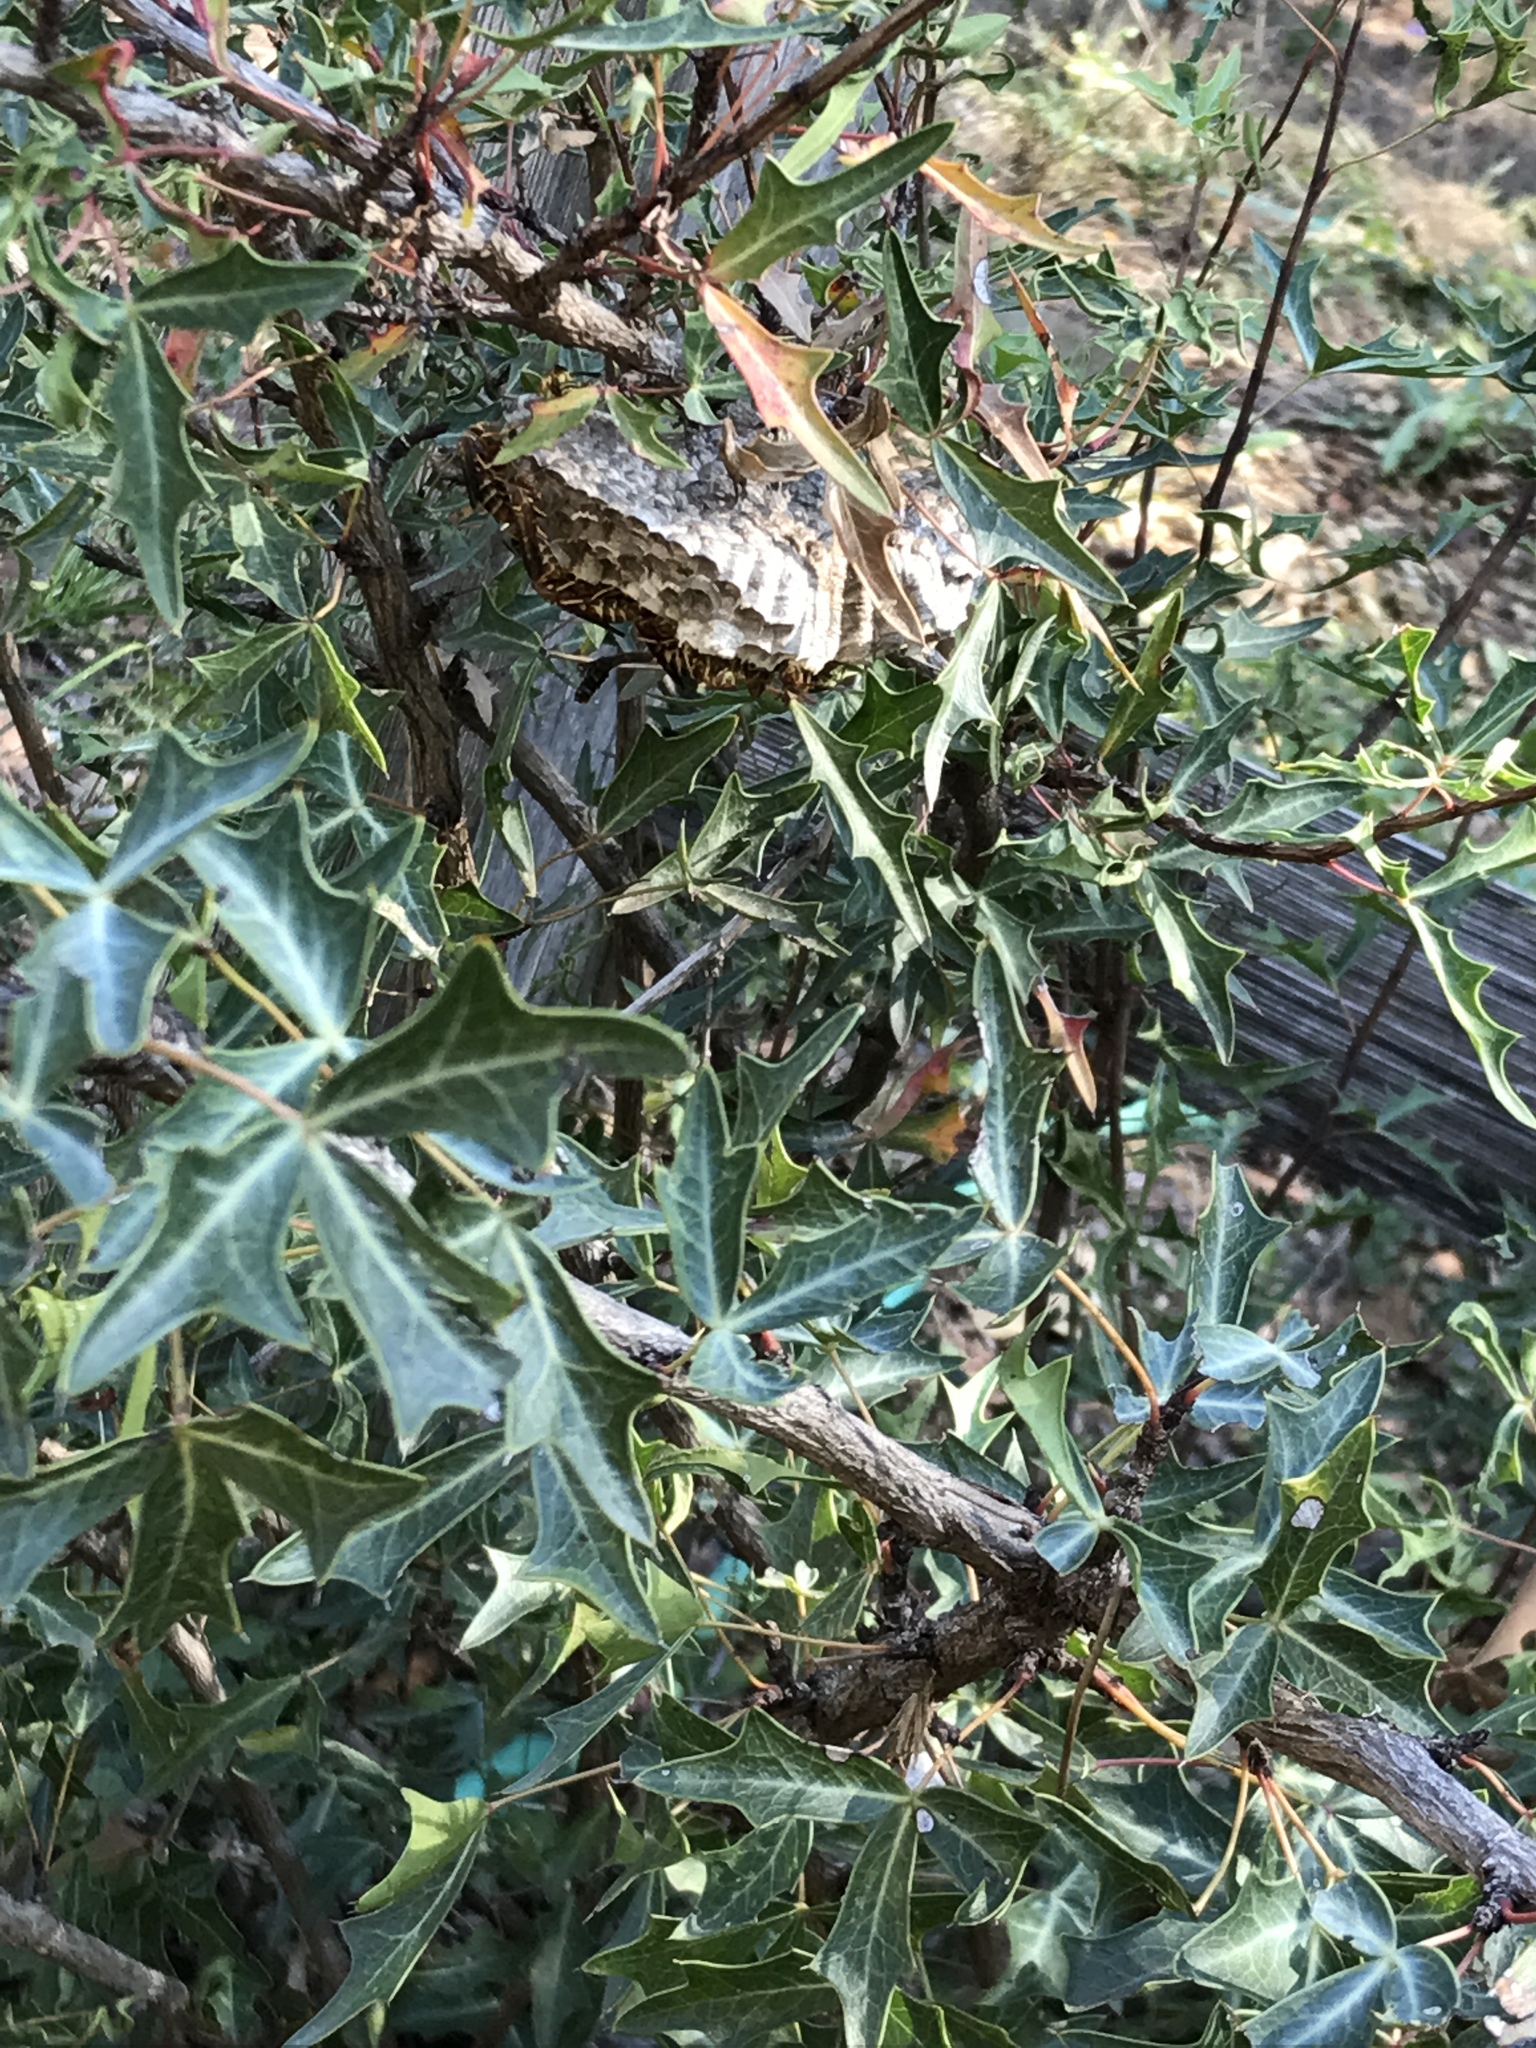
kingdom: Plantae
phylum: Tracheophyta
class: Magnoliopsida
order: Ranunculales
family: Berberidaceae
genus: Alloberberis
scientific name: Alloberberis trifoliolata
